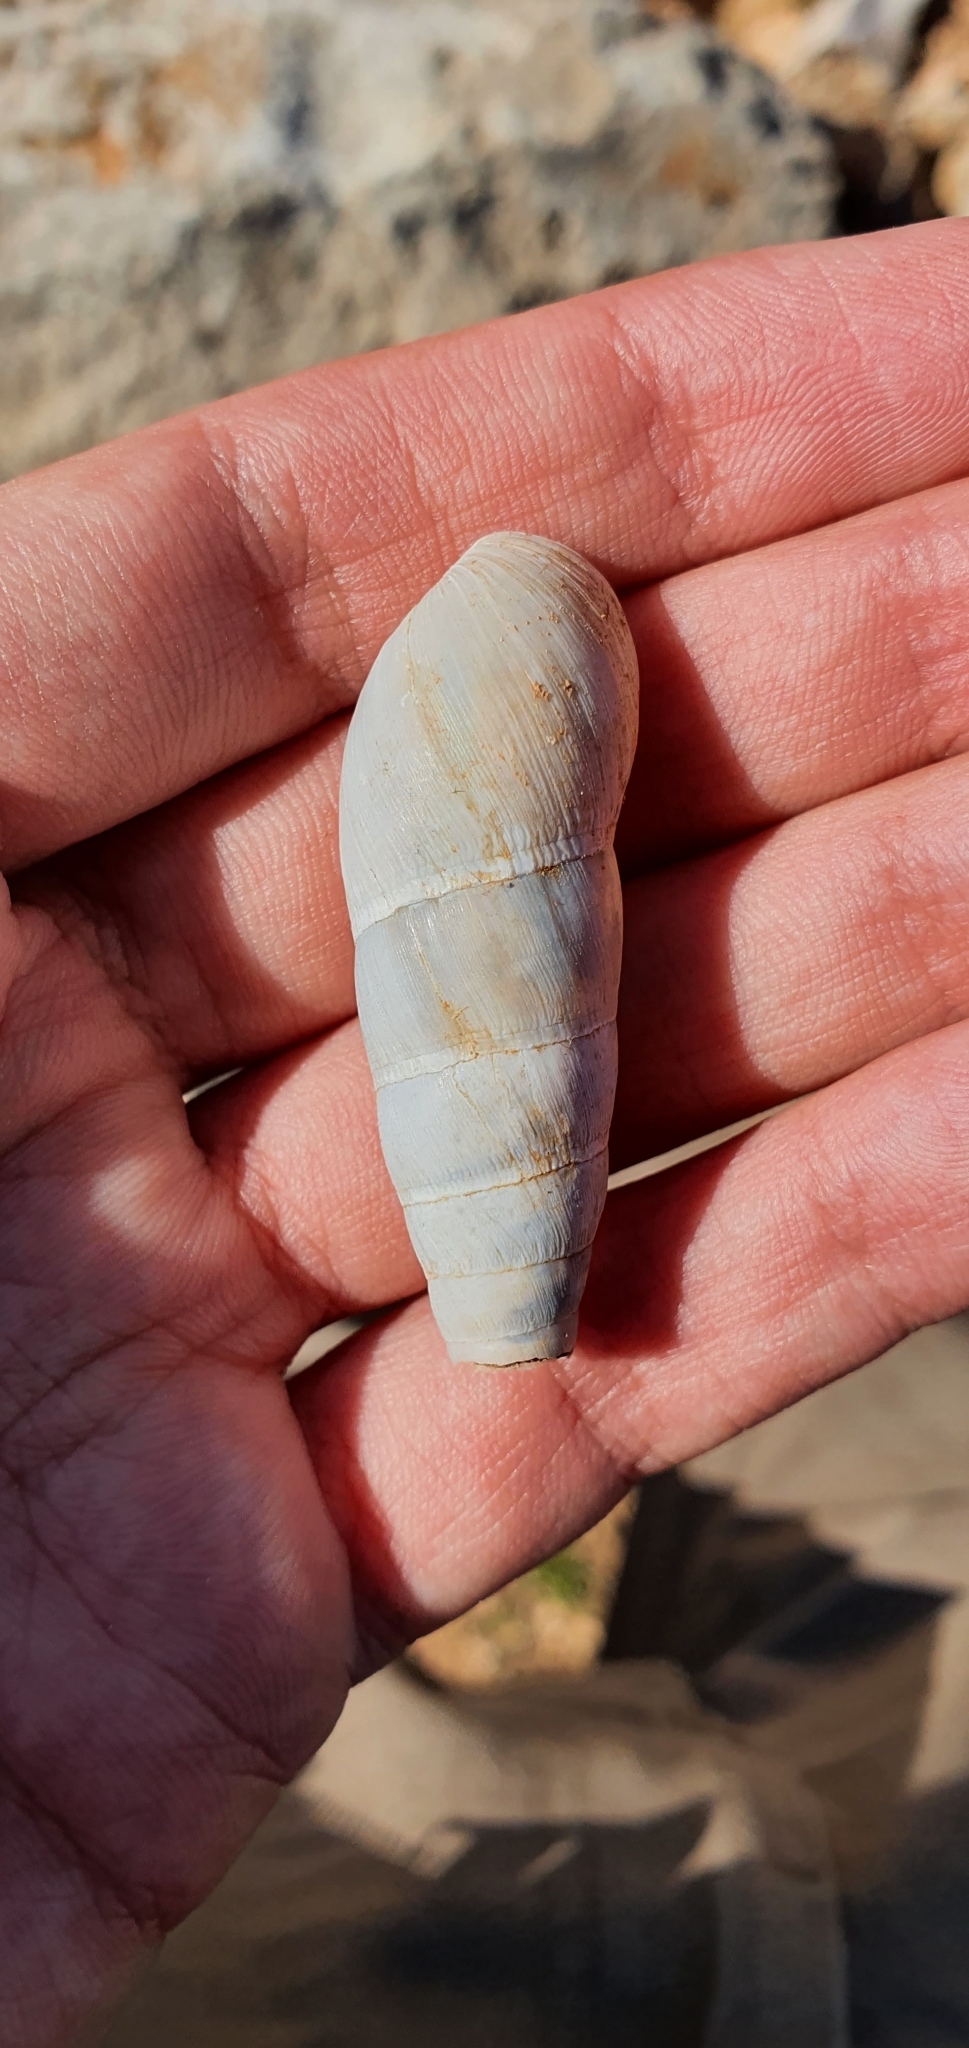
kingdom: Animalia
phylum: Mollusca
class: Gastropoda
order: Stylommatophora
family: Achatinidae
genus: Rumina
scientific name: Rumina decollata
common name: Decollate snail
